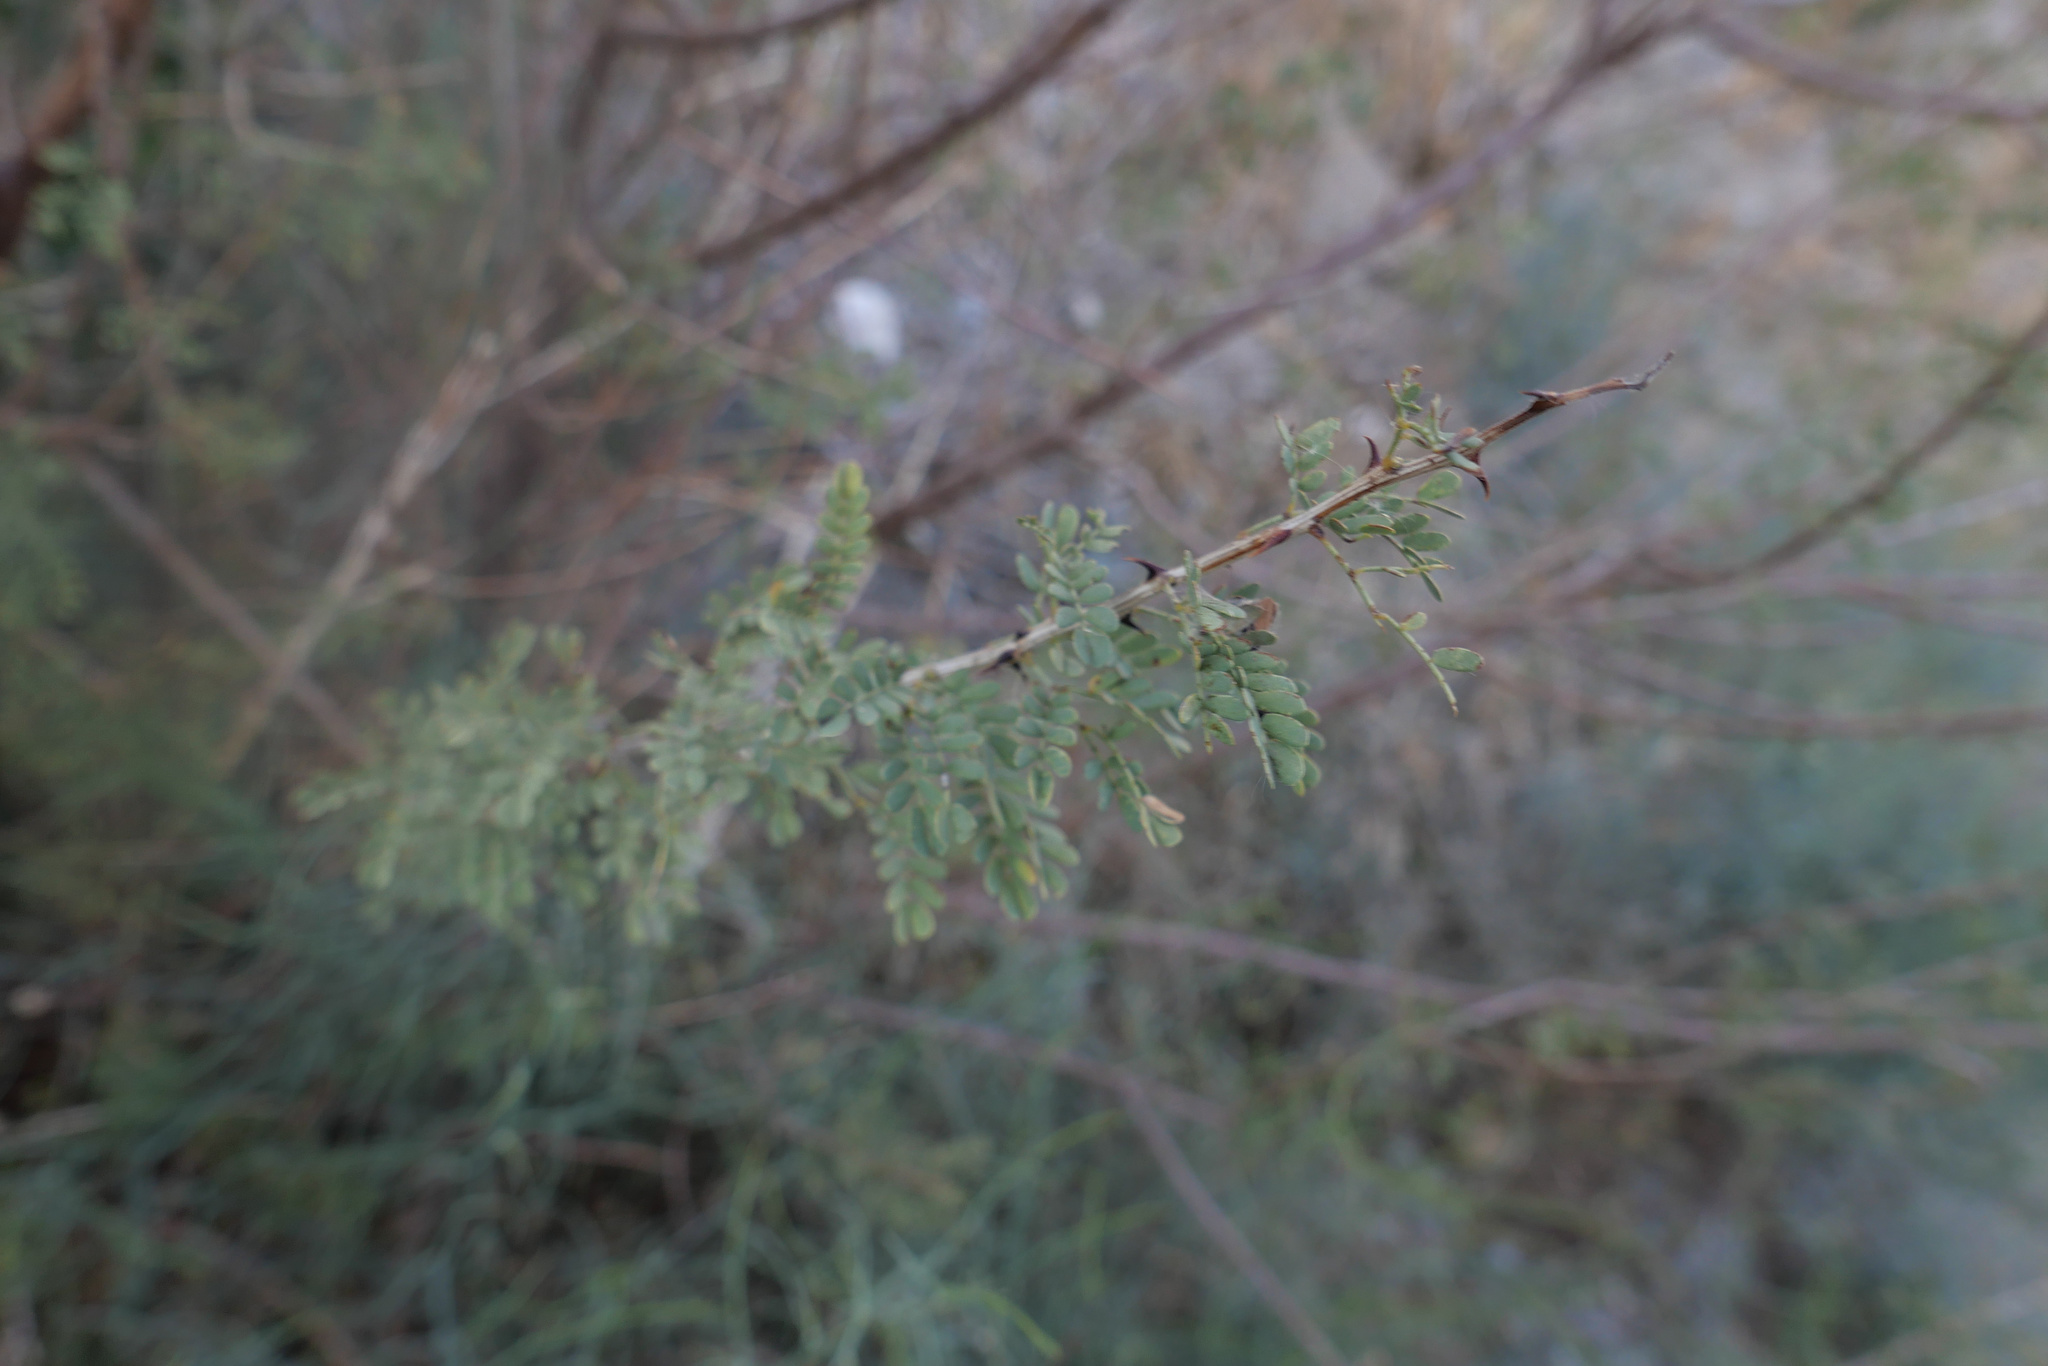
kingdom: Plantae
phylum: Tracheophyta
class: Magnoliopsida
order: Fabales
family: Fabaceae
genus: Senegalia
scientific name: Senegalia greggii
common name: Texas-mimosa
